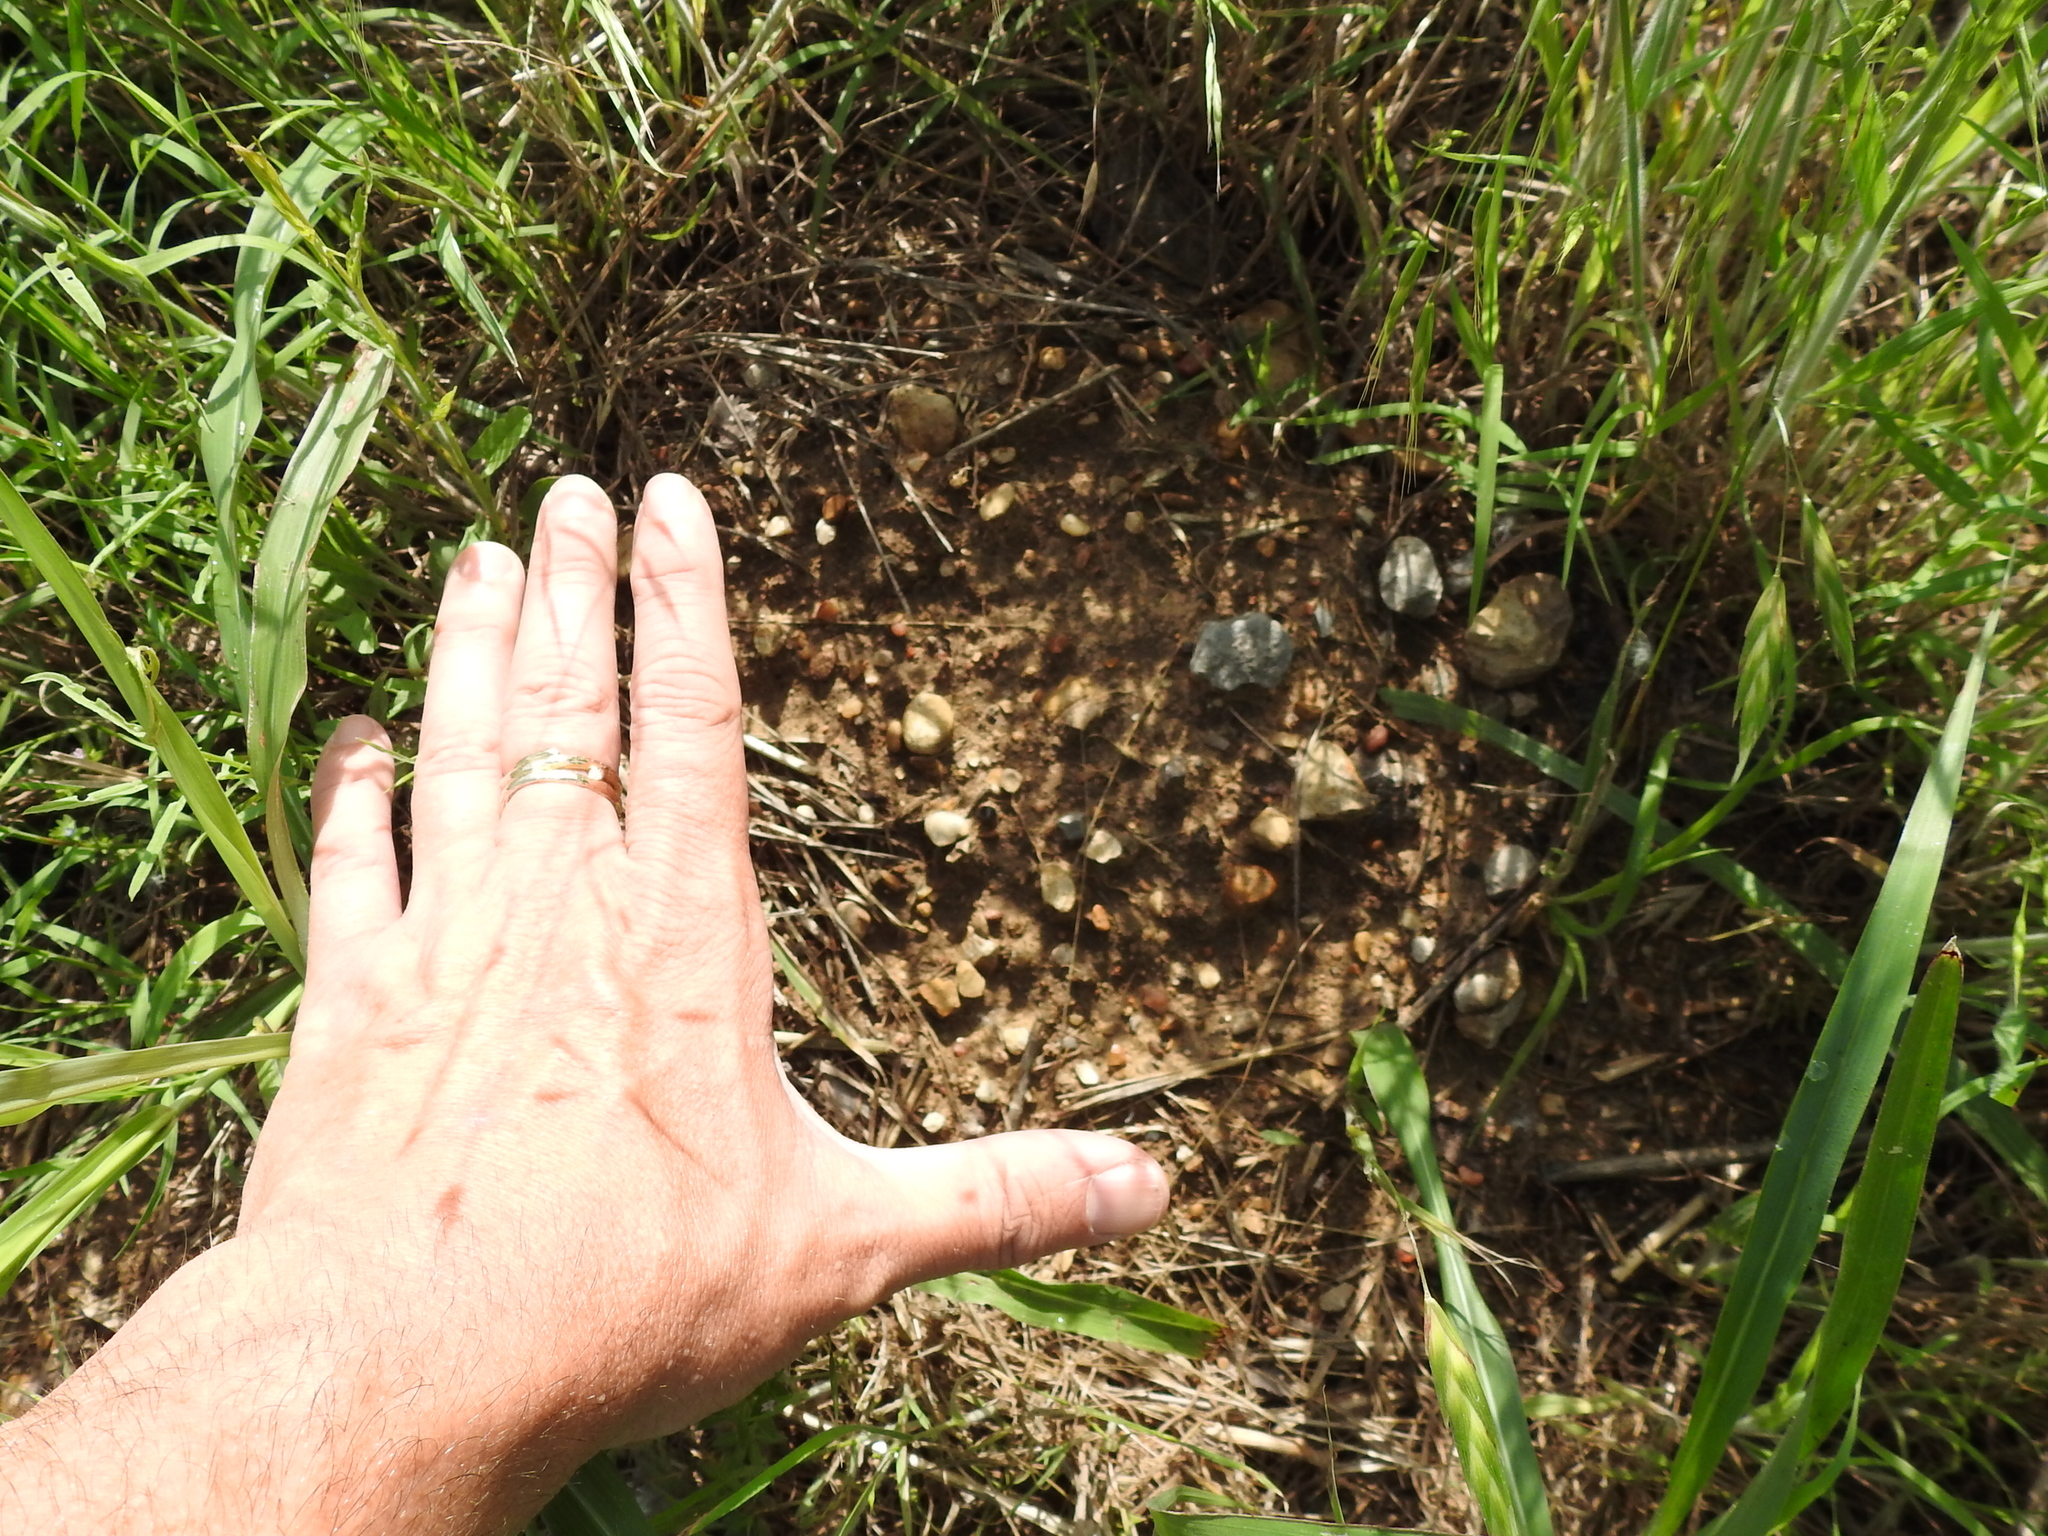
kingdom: Animalia
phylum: Chordata
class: Mammalia
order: Rodentia
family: Geomyidae
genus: Geomys
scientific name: Geomys bursarius
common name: Plains pocket gopher
